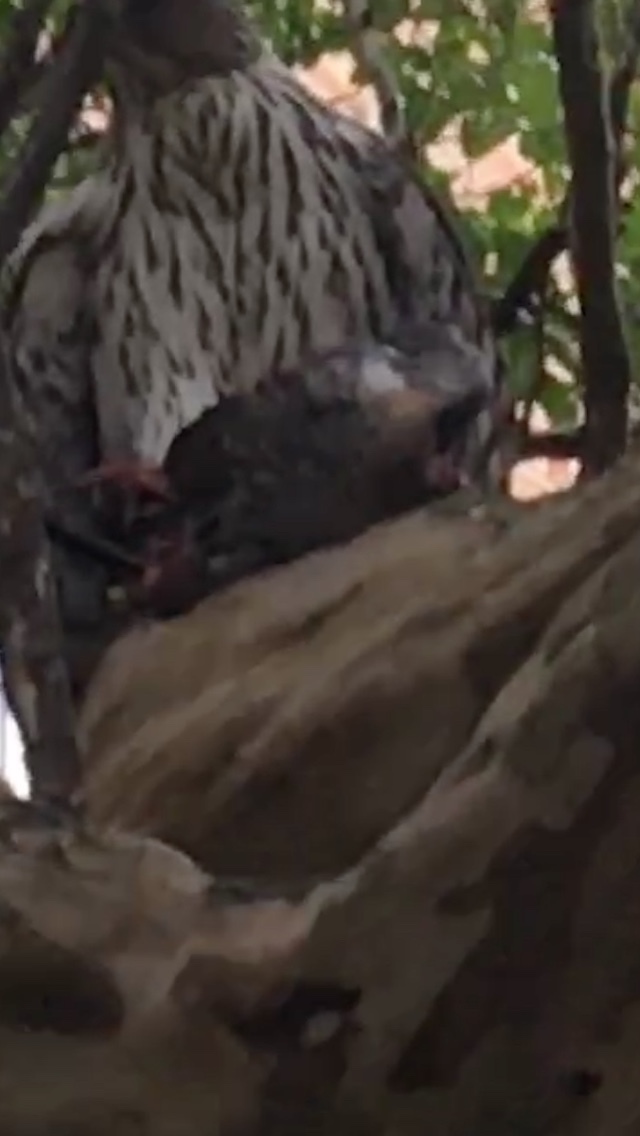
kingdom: Animalia
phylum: Chordata
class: Aves
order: Columbiformes
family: Columbidae
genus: Columba
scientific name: Columba livia
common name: Rock pigeon
